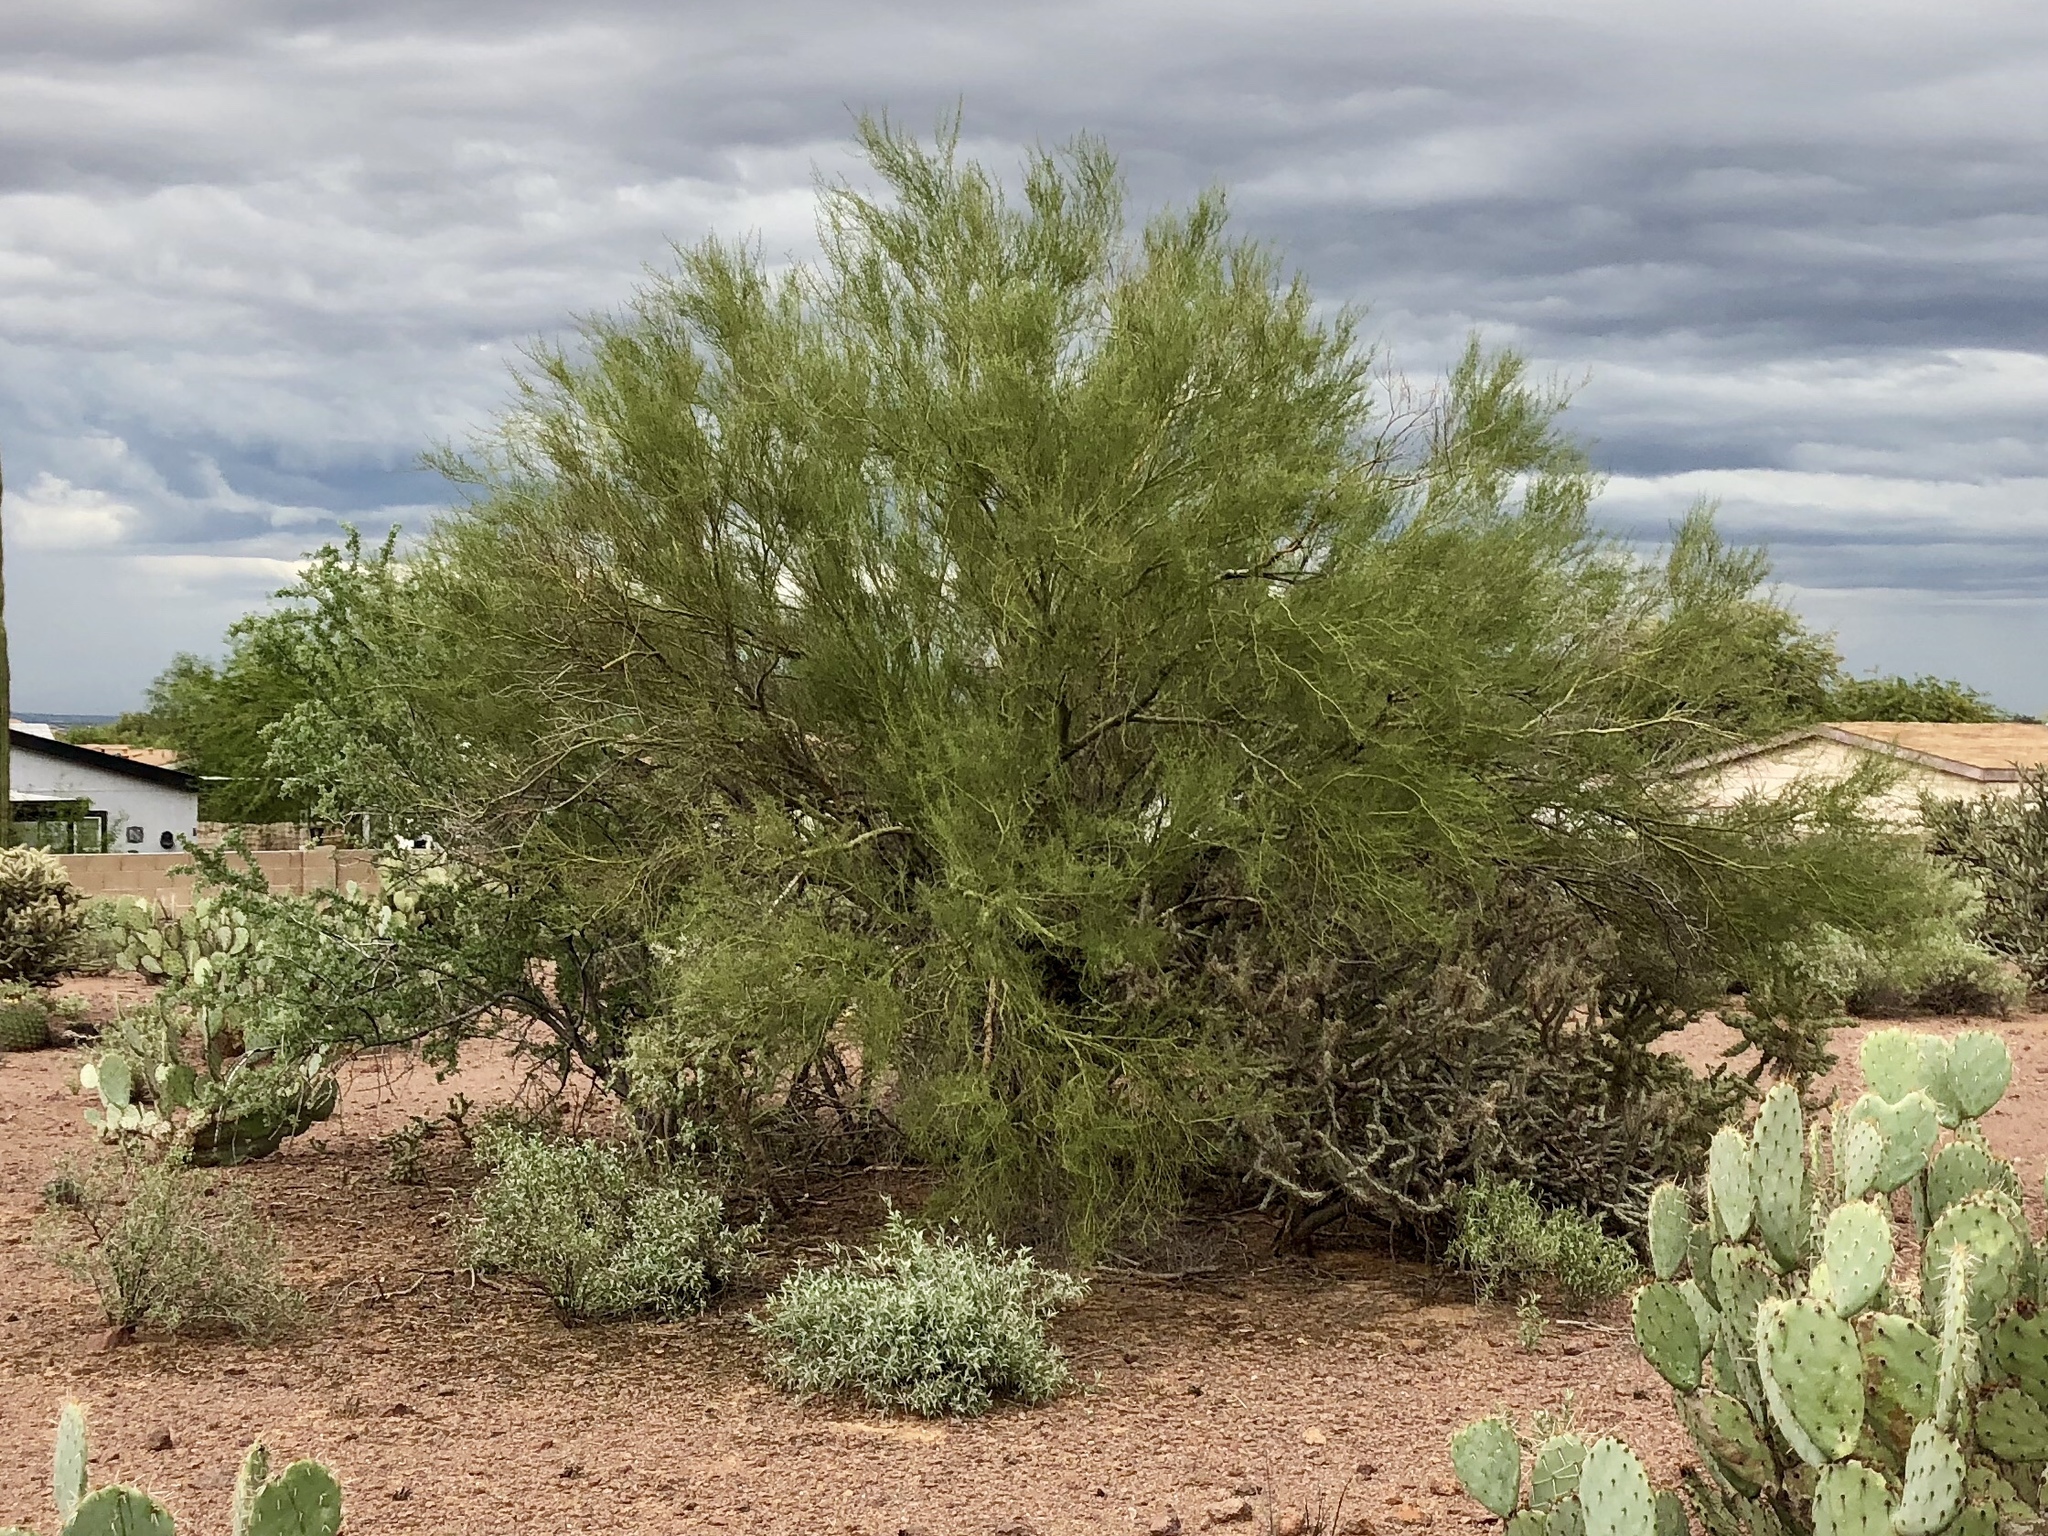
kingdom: Plantae
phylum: Tracheophyta
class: Magnoliopsida
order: Fabales
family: Fabaceae
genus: Parkinsonia
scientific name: Parkinsonia microphylla
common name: Yellow paloverde
